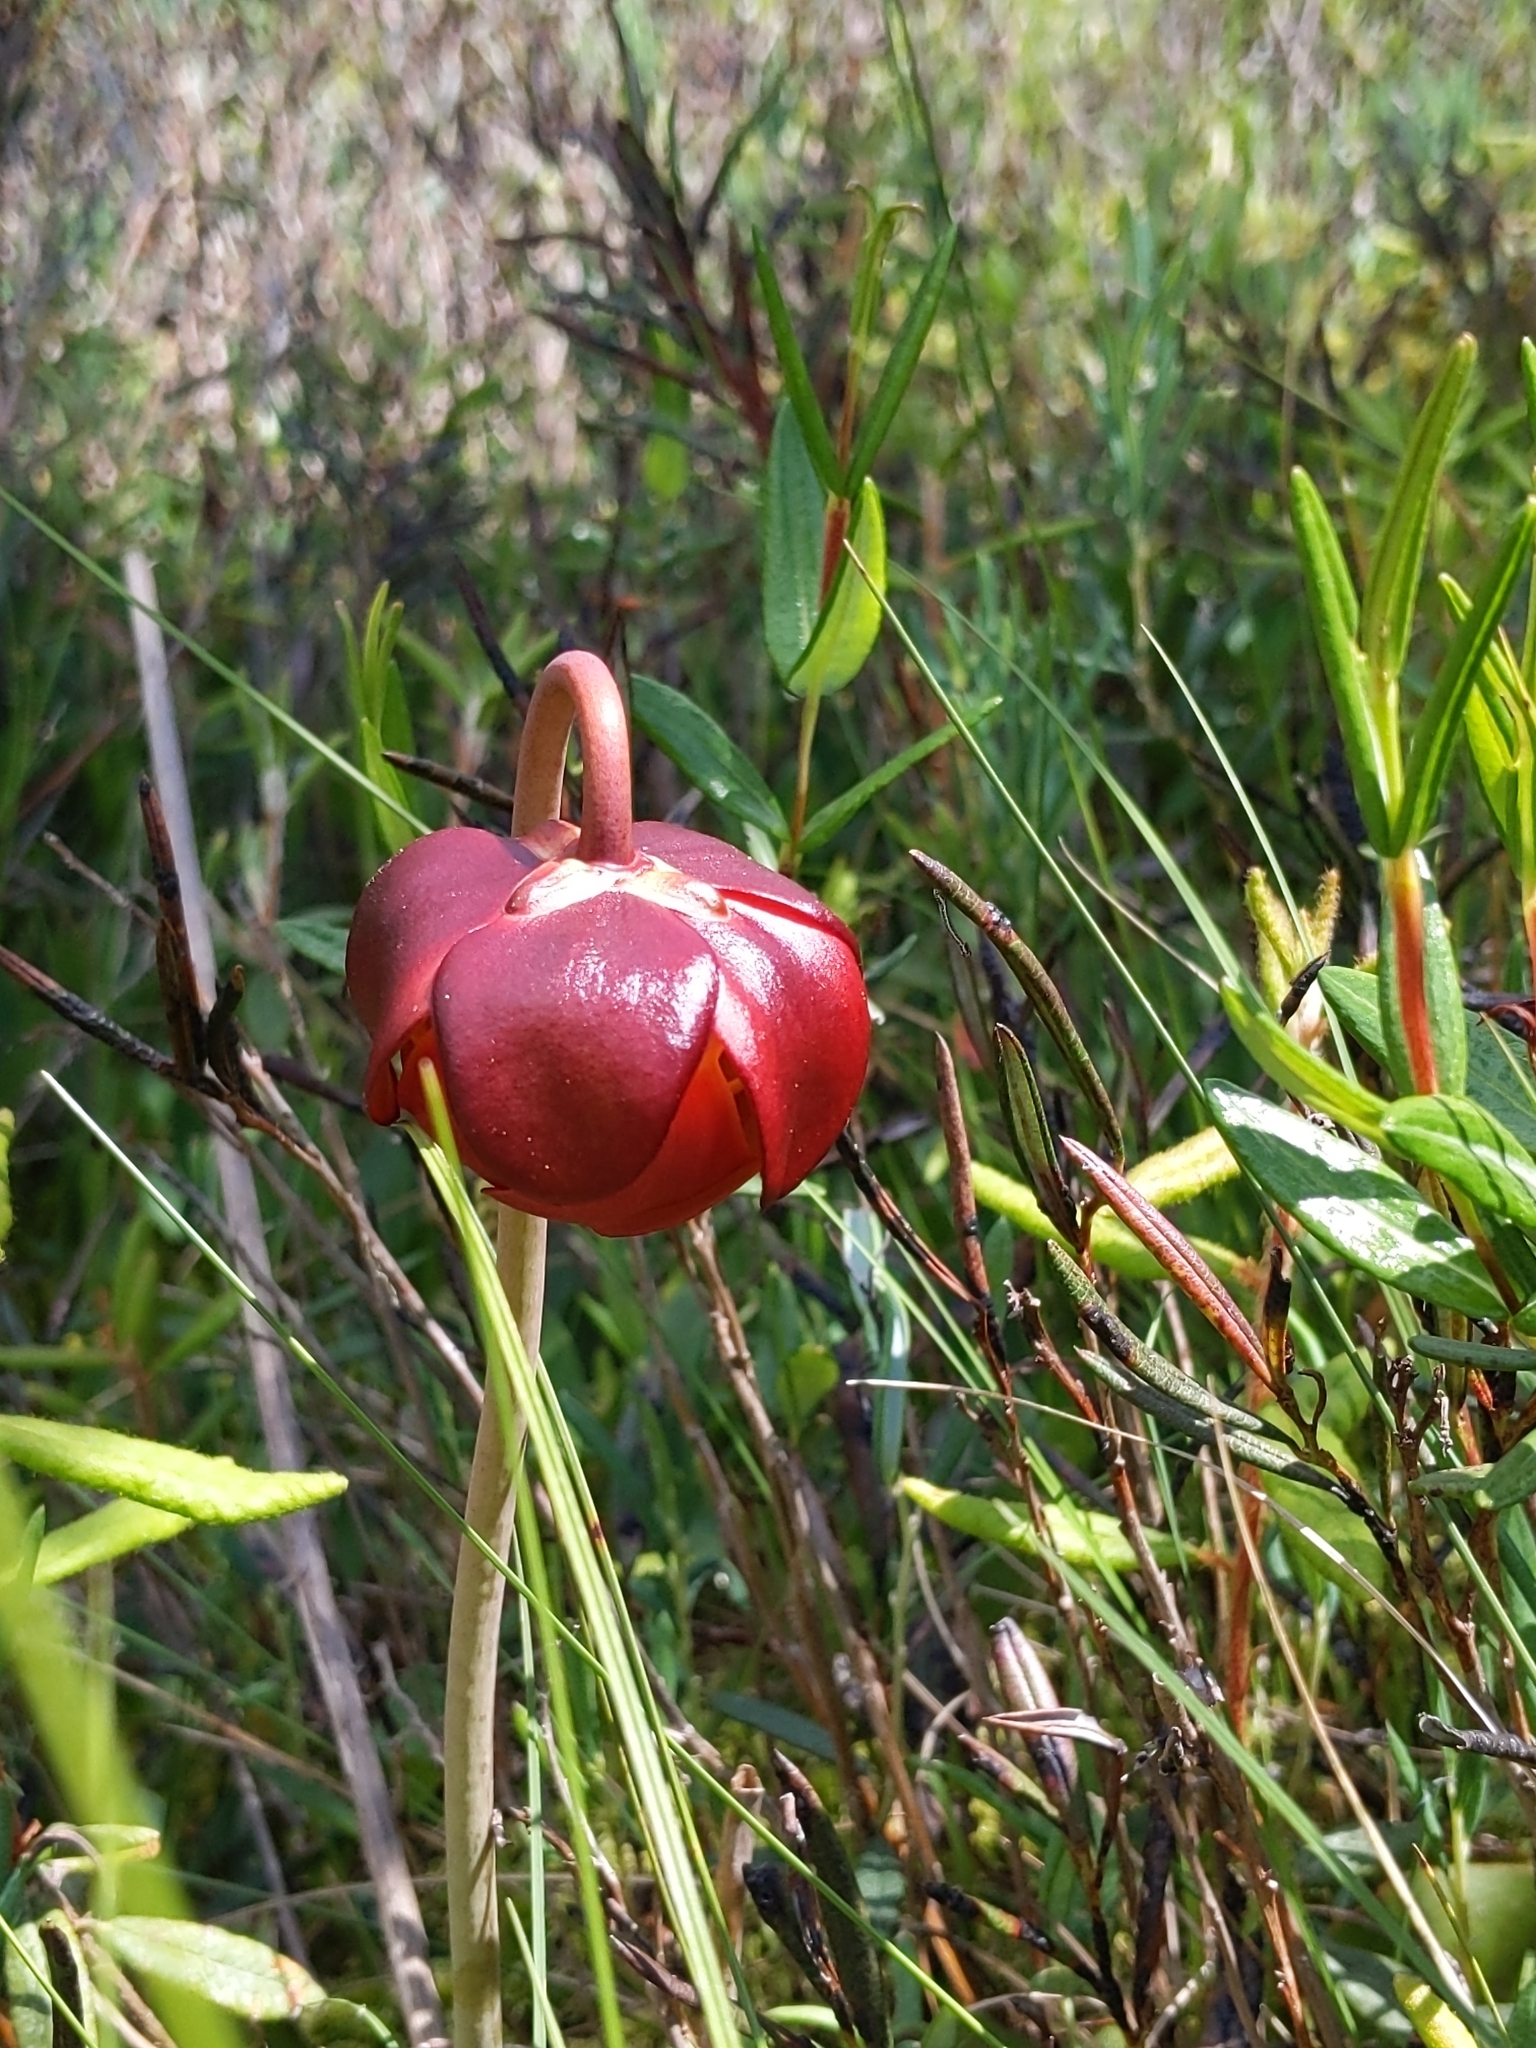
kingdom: Plantae
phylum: Tracheophyta
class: Magnoliopsida
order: Ericales
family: Sarraceniaceae
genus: Sarracenia
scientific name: Sarracenia purpurea
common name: Pitcherplant
